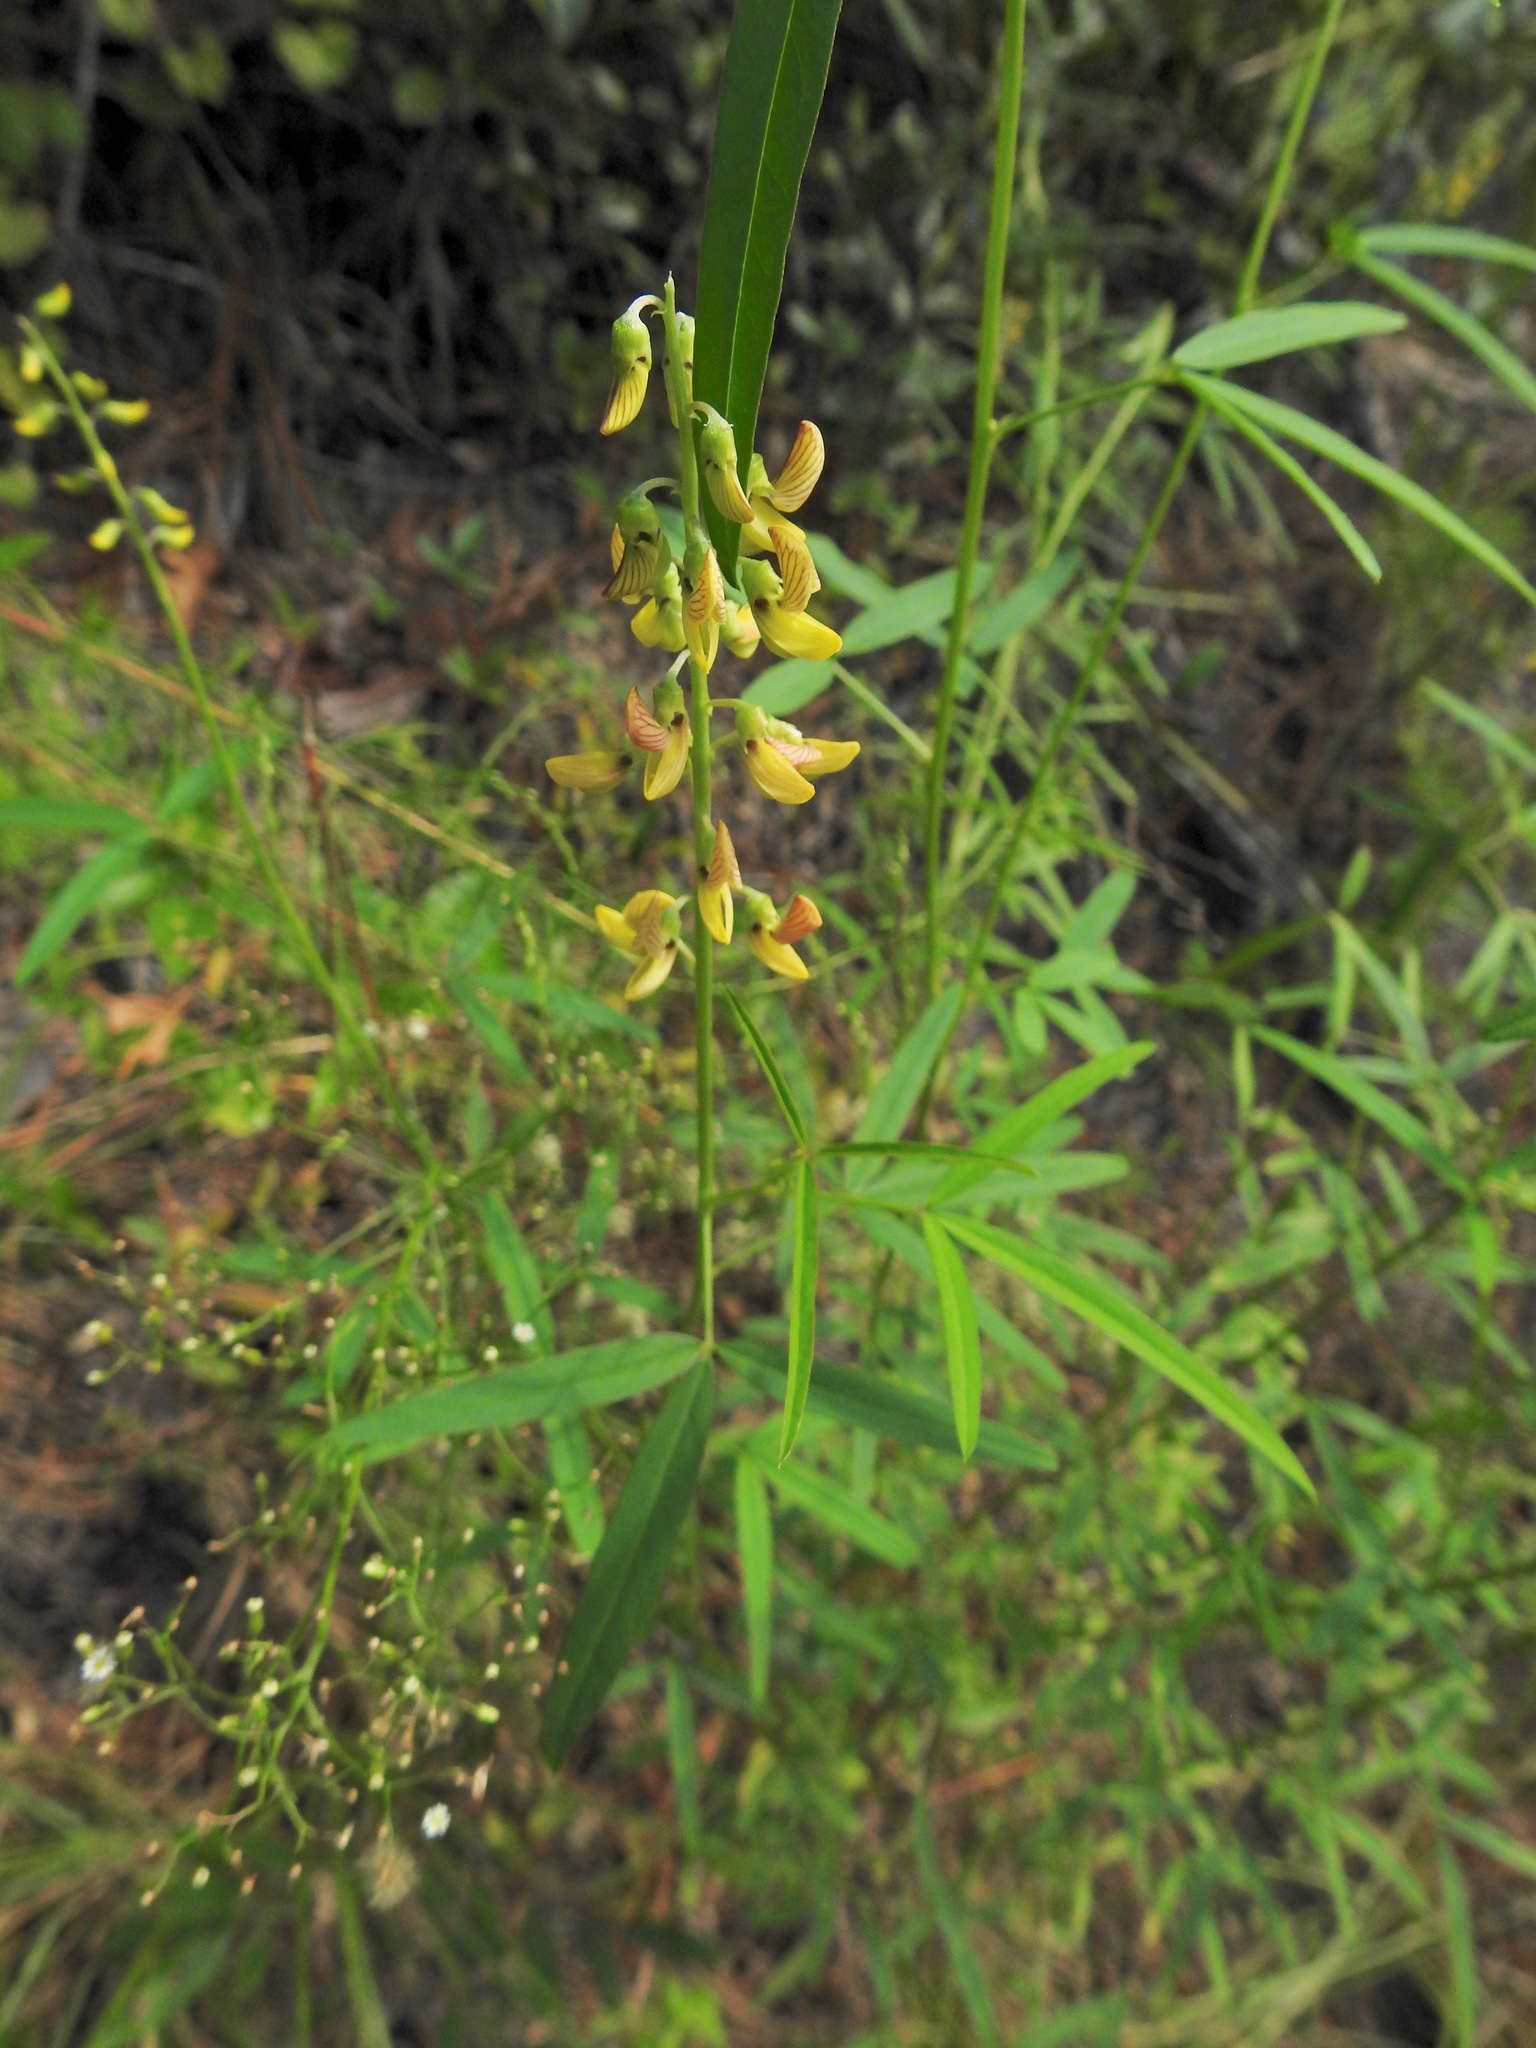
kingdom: Plantae
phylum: Tracheophyta
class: Magnoliopsida
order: Fabales
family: Fabaceae
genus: Crotalaria
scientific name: Crotalaria lanceolata
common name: Lanceleaf rattlebox
